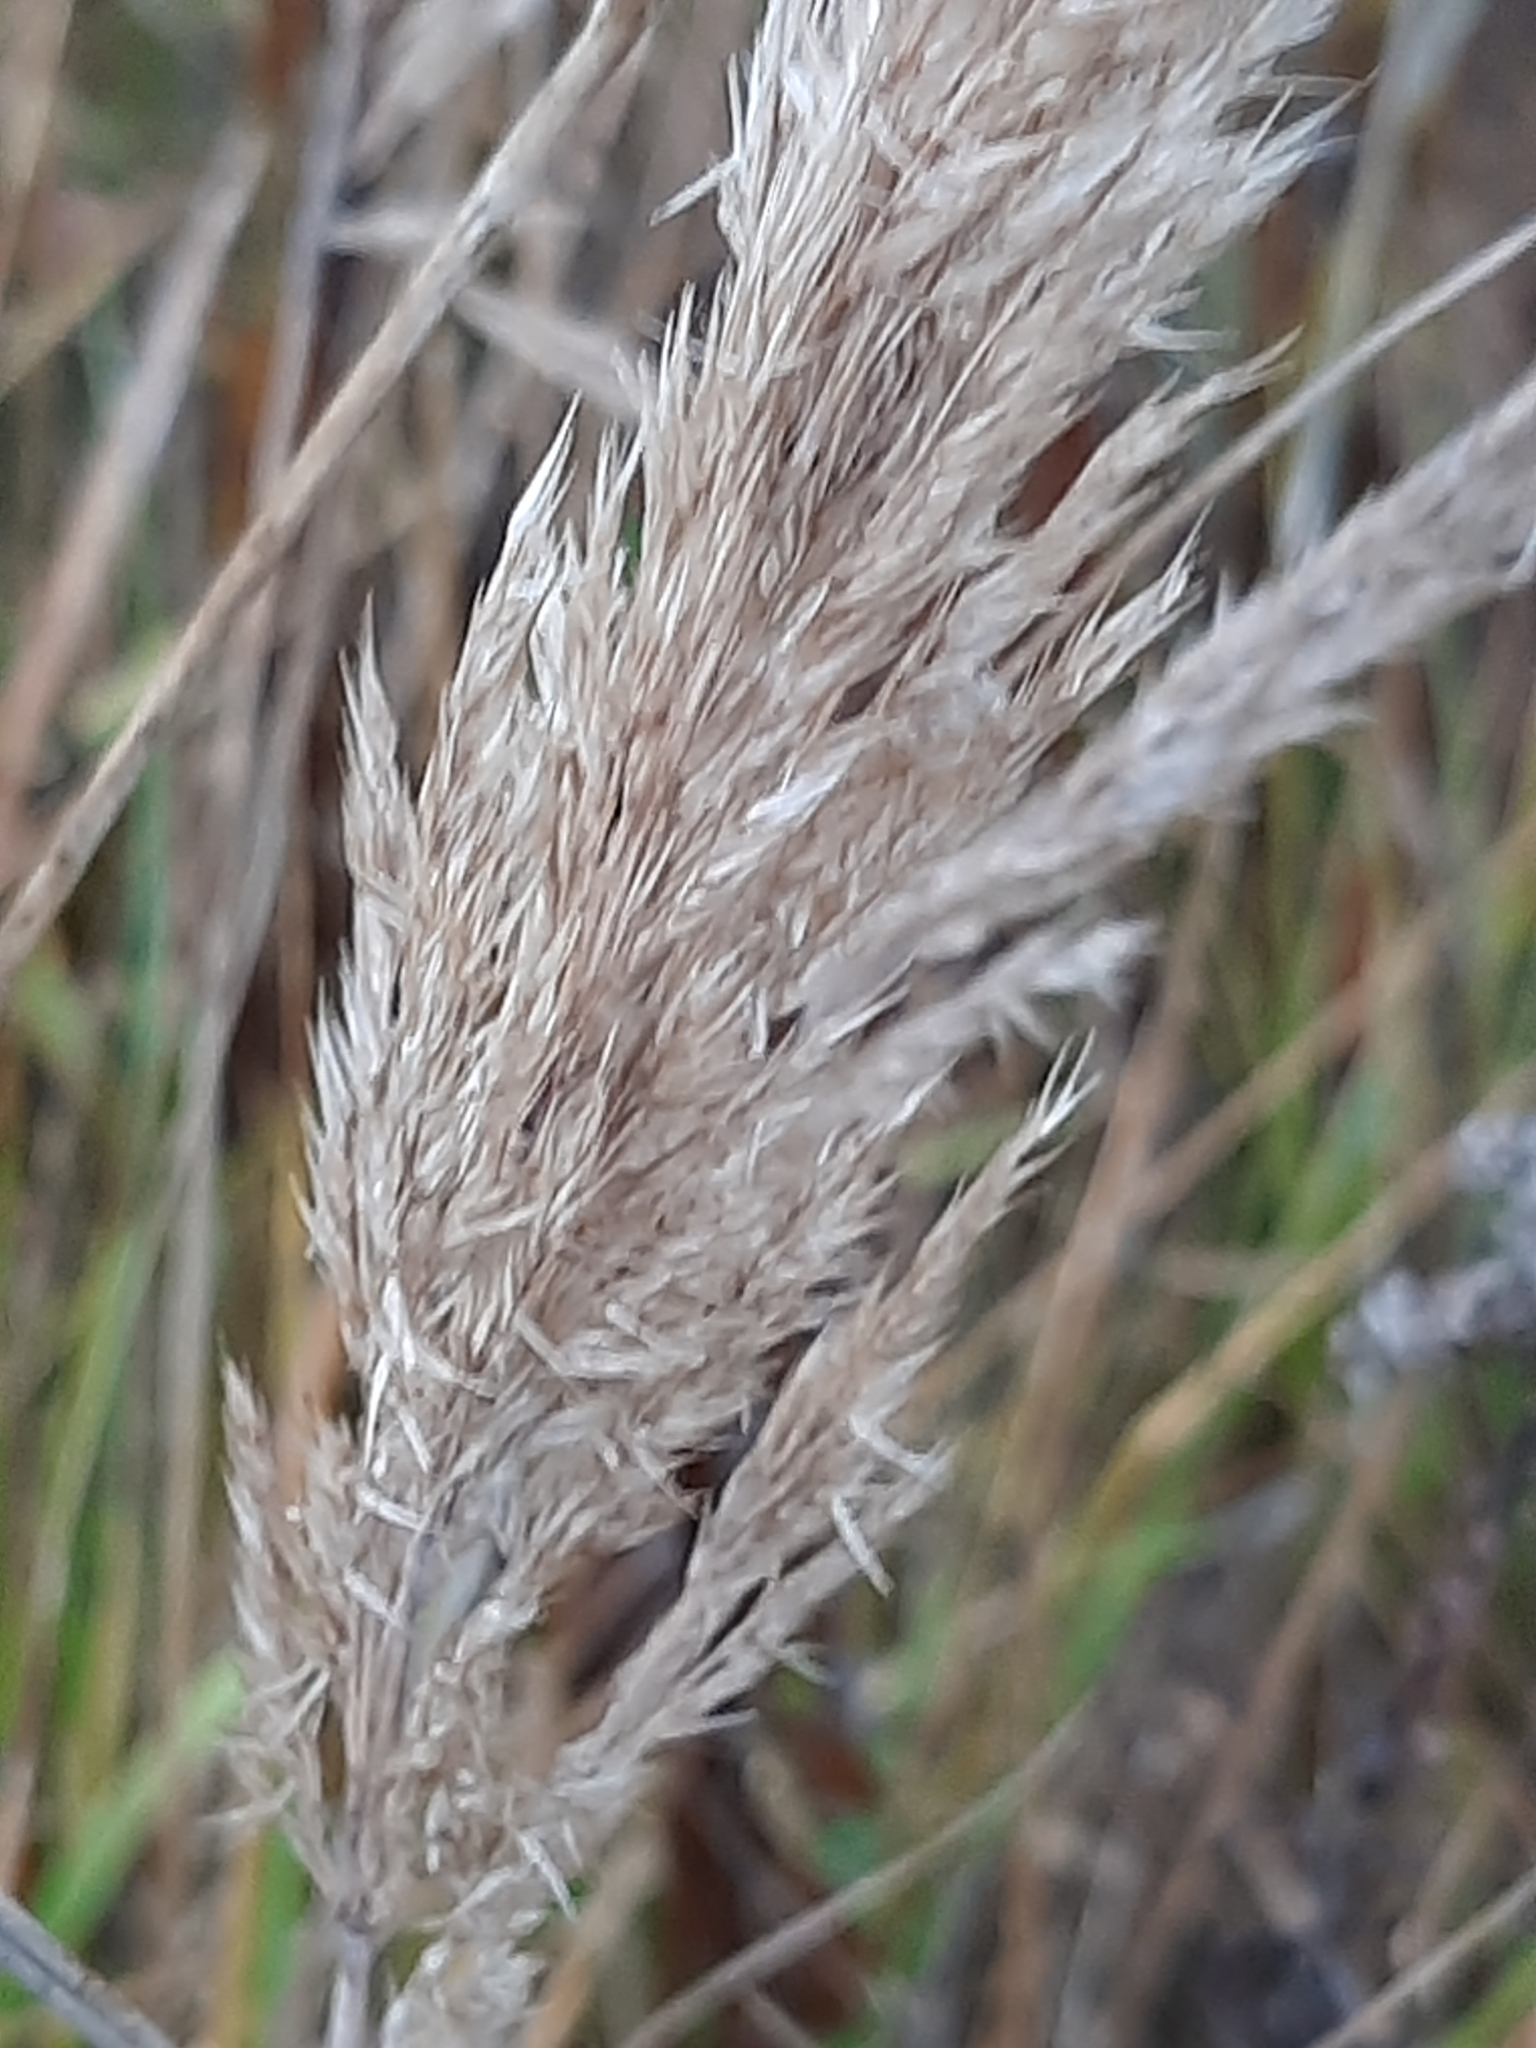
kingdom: Plantae
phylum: Tracheophyta
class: Liliopsida
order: Poales
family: Poaceae
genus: Calamagrostis
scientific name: Calamagrostis epigejos
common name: Wood small-reed
